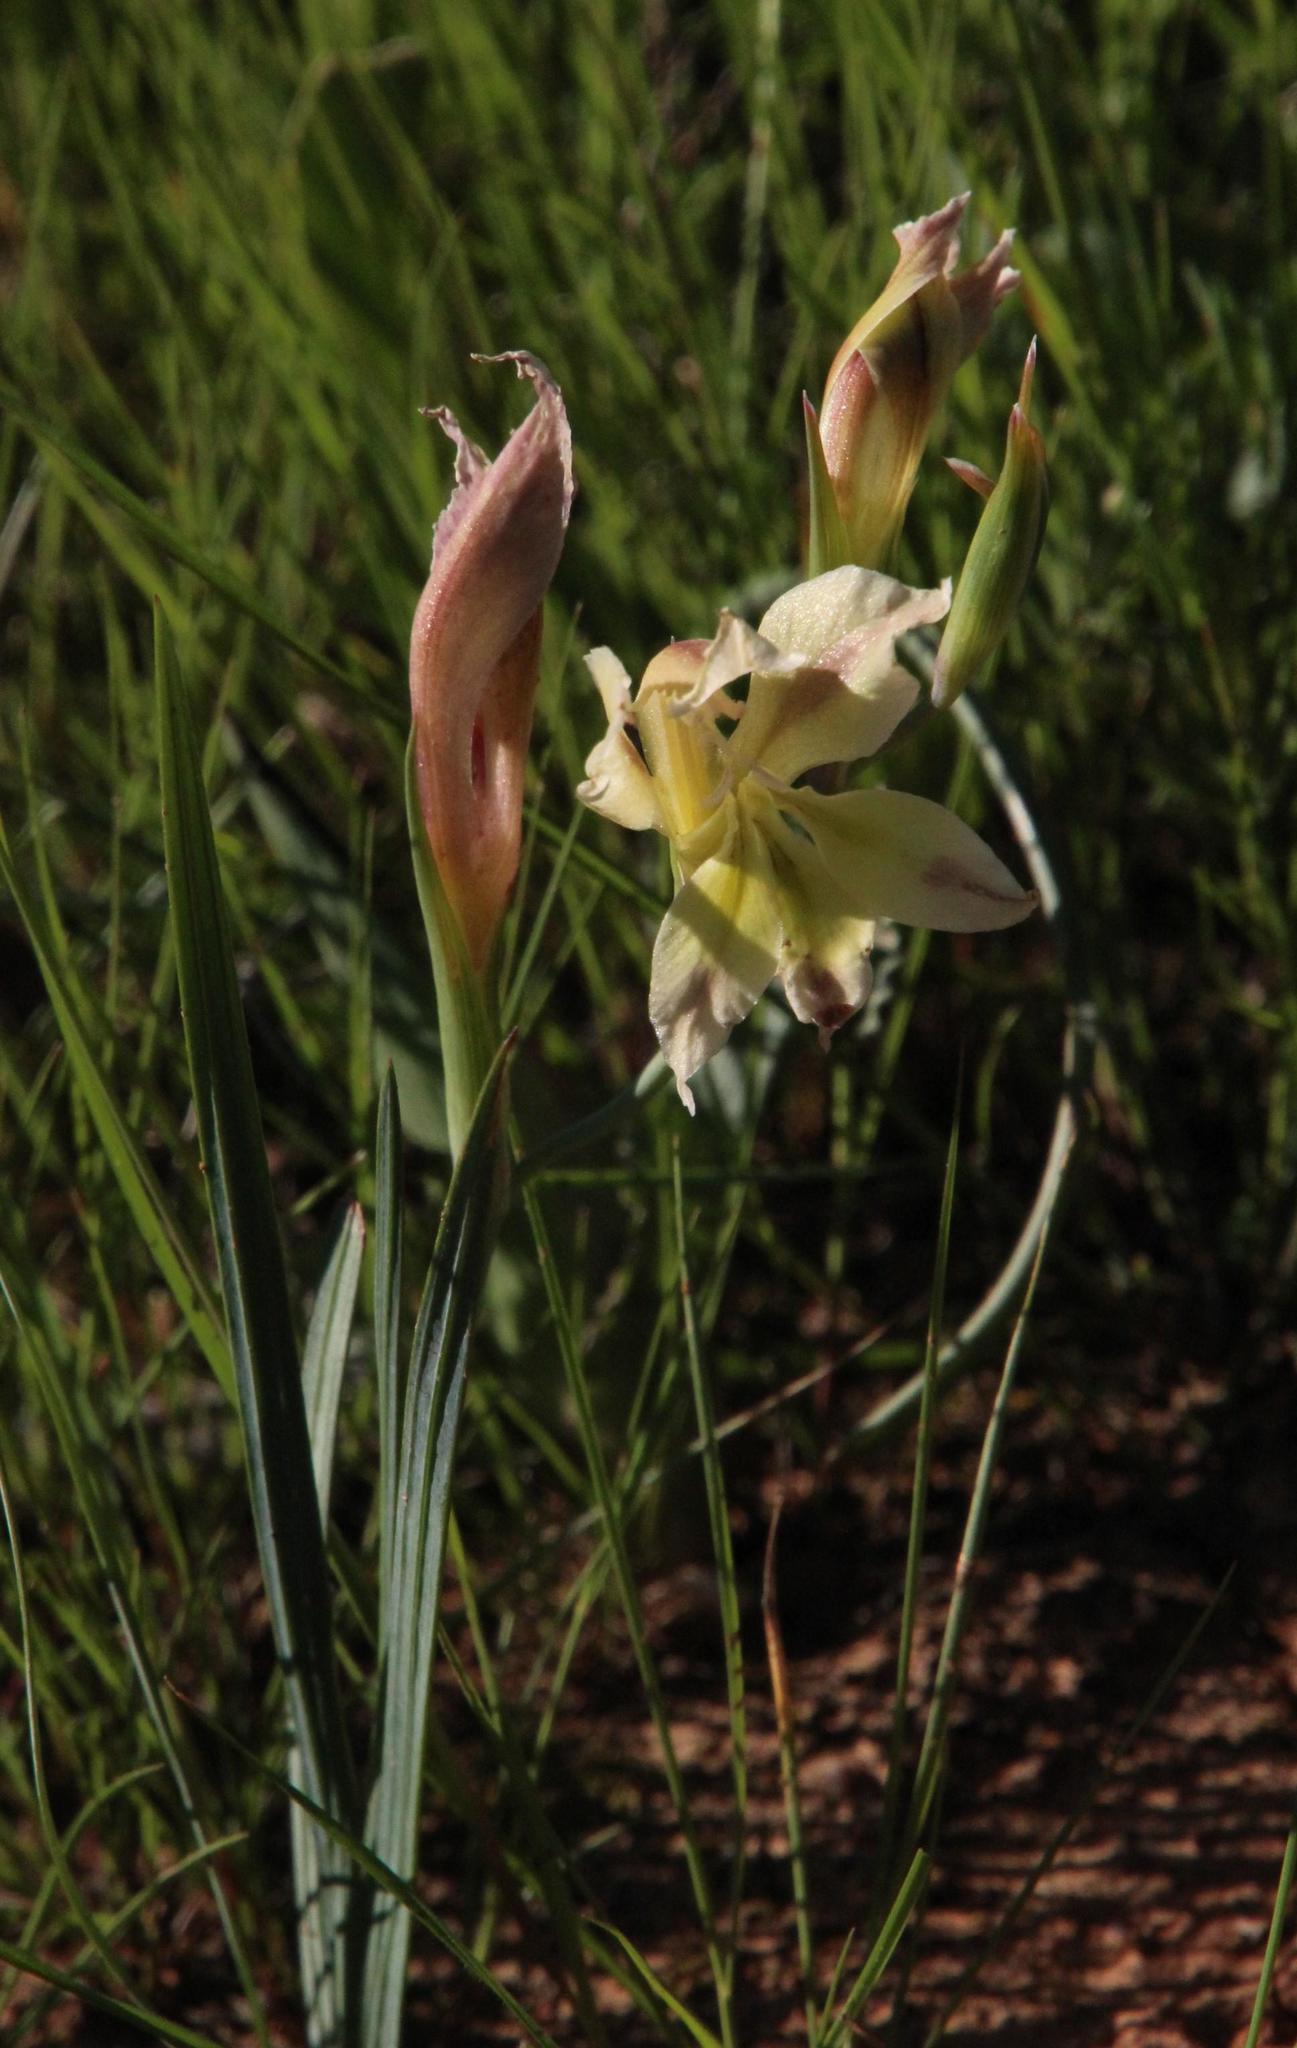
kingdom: Plantae
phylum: Tracheophyta
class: Liliopsida
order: Asparagales
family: Iridaceae
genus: Gladiolus
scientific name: Gladiolus scullyi
